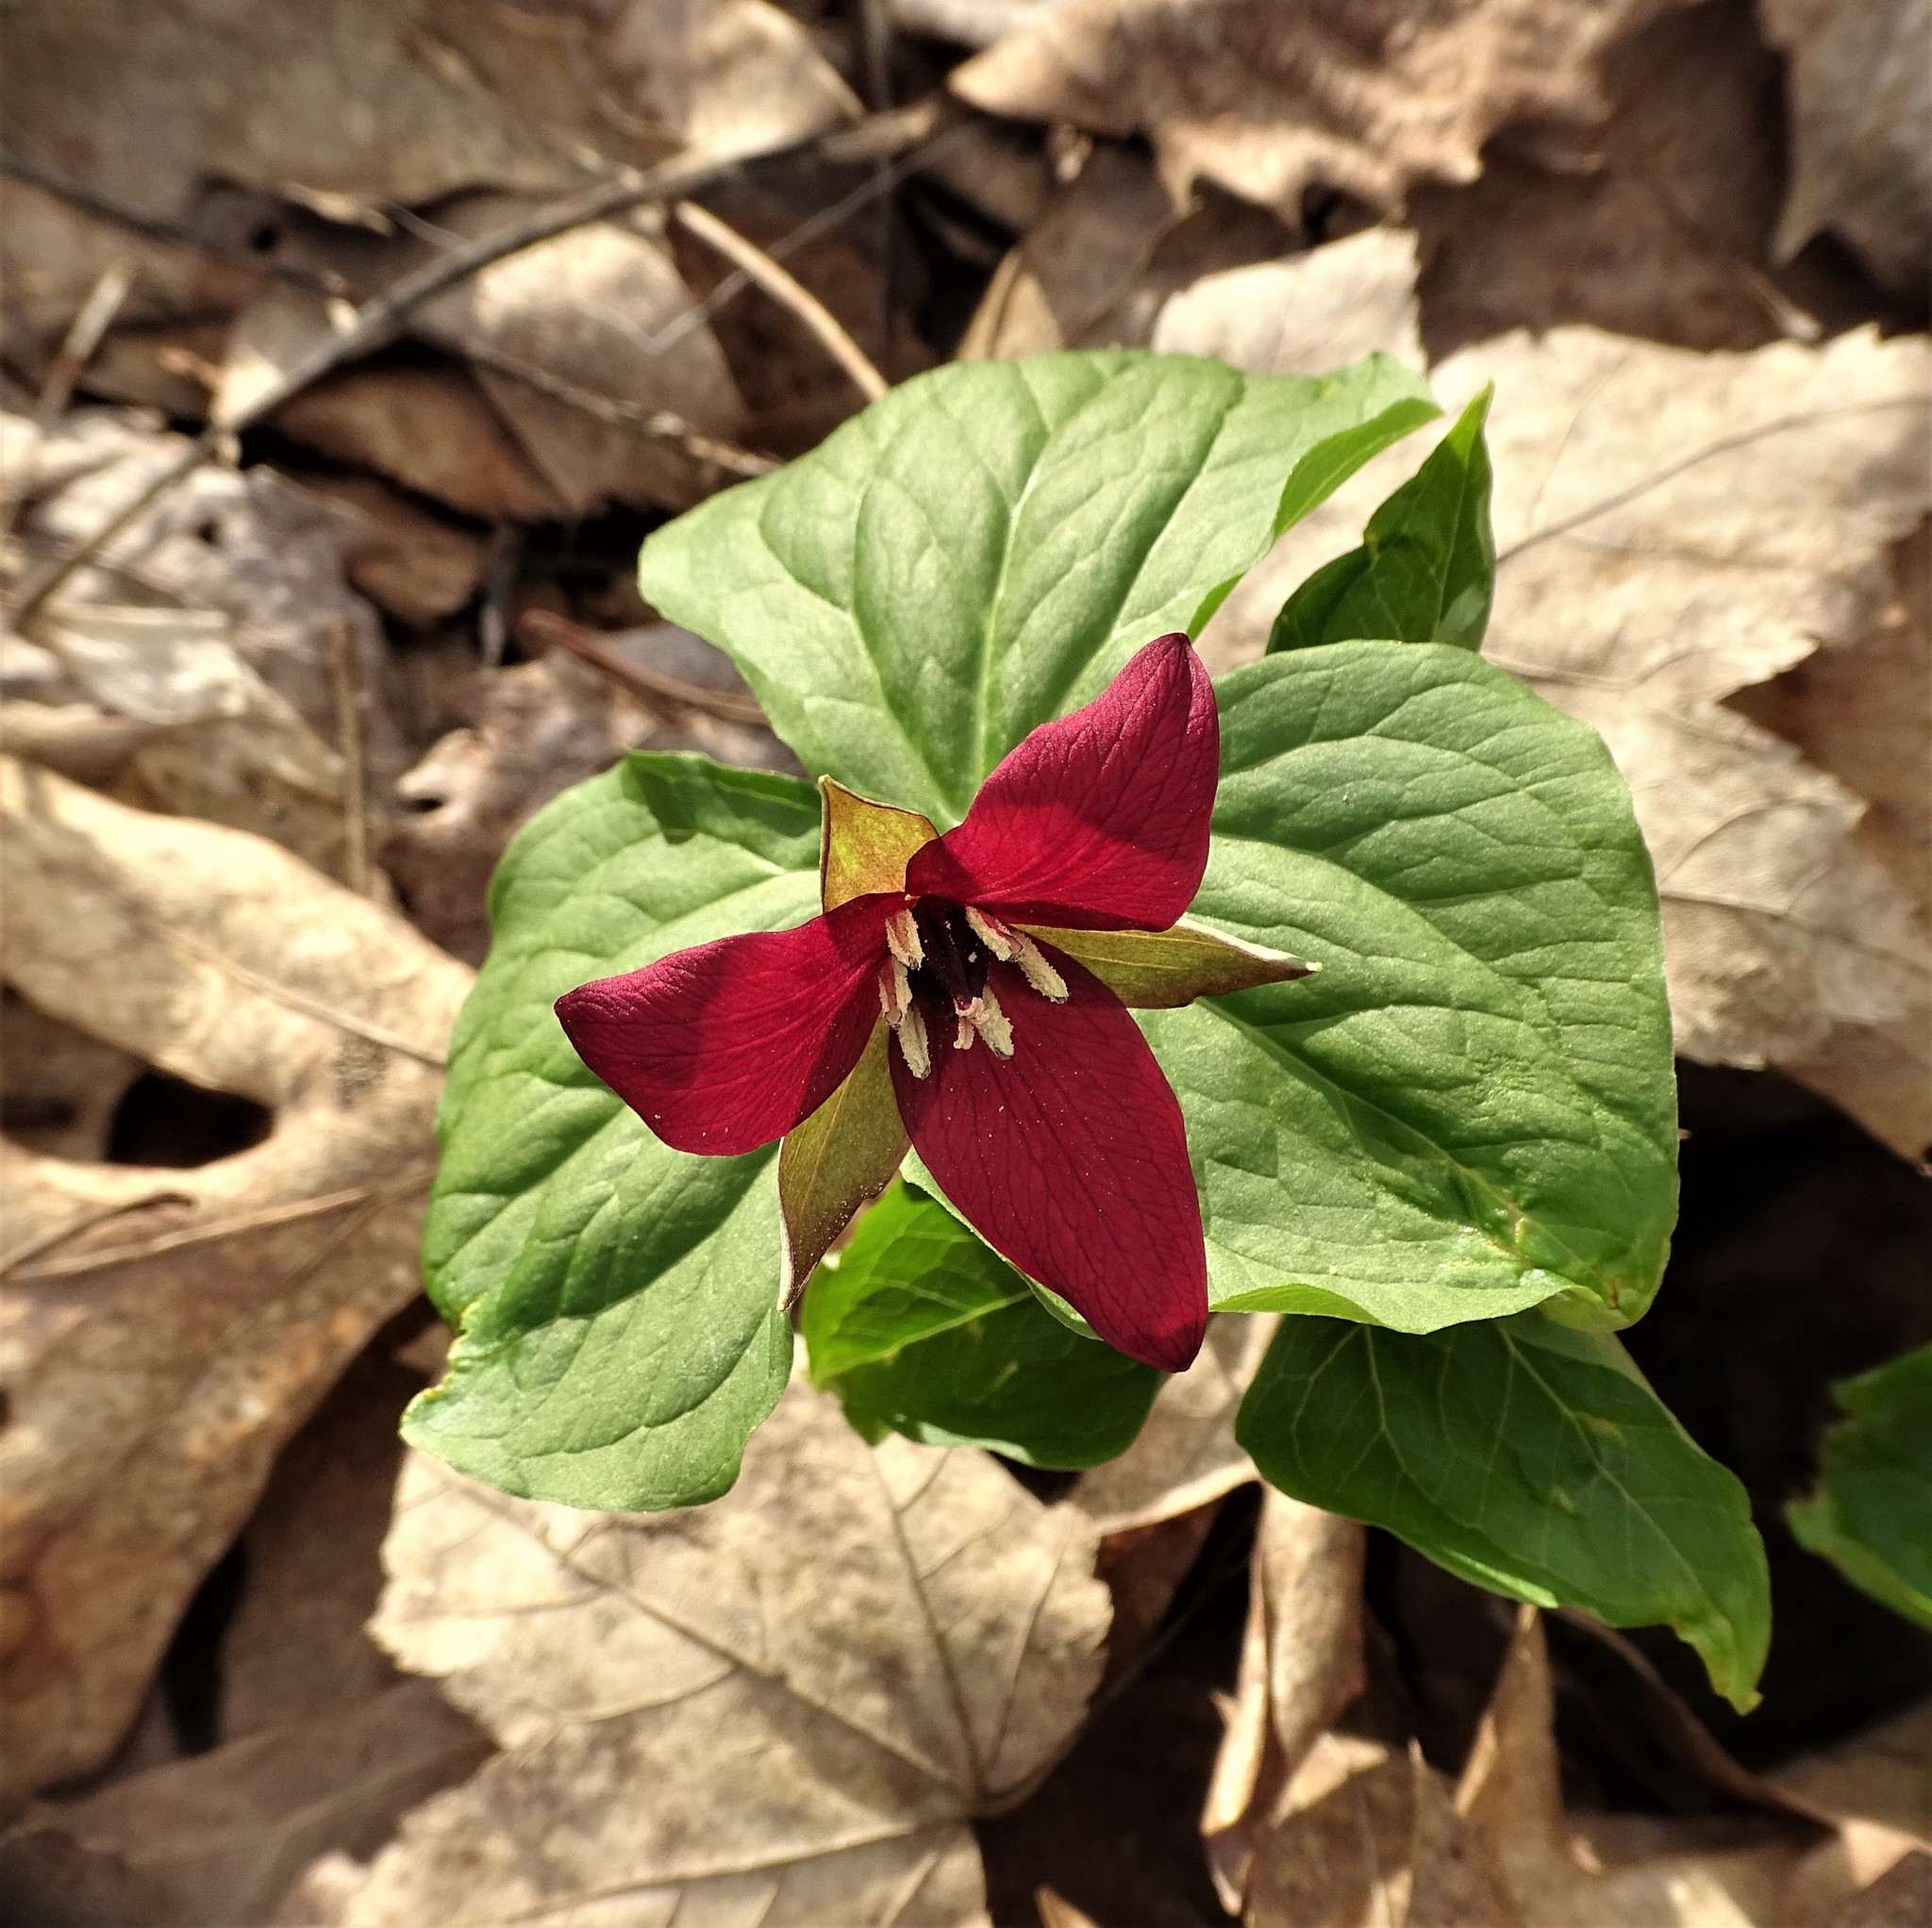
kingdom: Plantae
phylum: Tracheophyta
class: Liliopsida
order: Liliales
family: Melanthiaceae
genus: Trillium
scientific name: Trillium erectum
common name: Purple trillium
